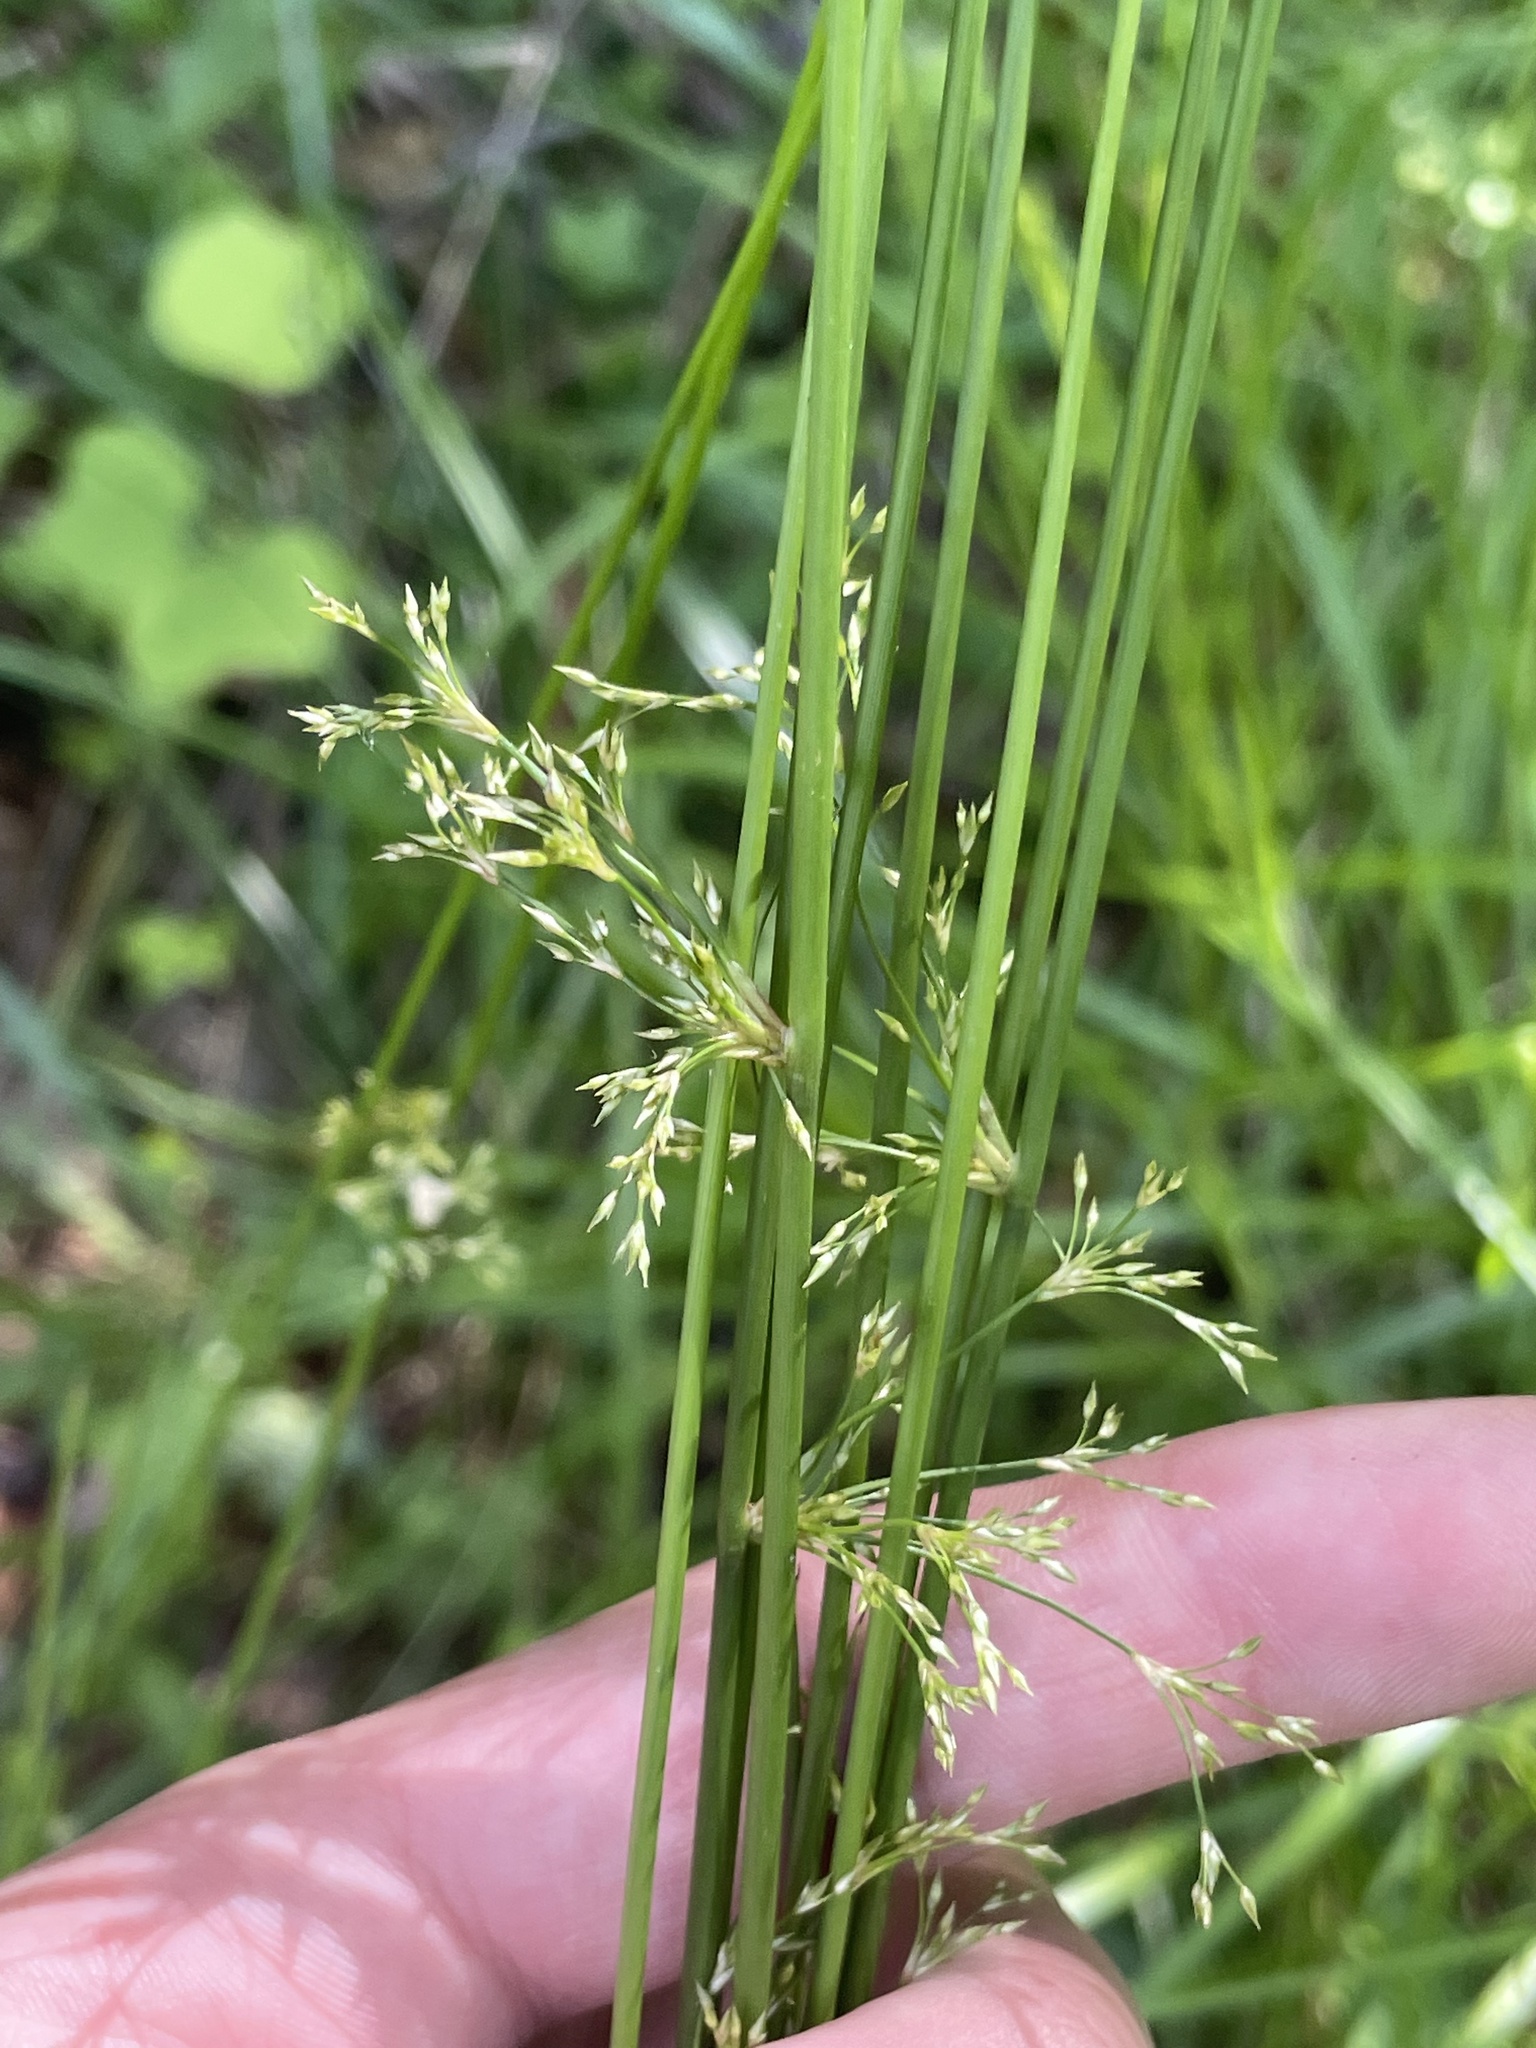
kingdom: Plantae
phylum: Tracheophyta
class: Liliopsida
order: Poales
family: Juncaceae
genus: Juncus
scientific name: Juncus effusus
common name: Soft rush
